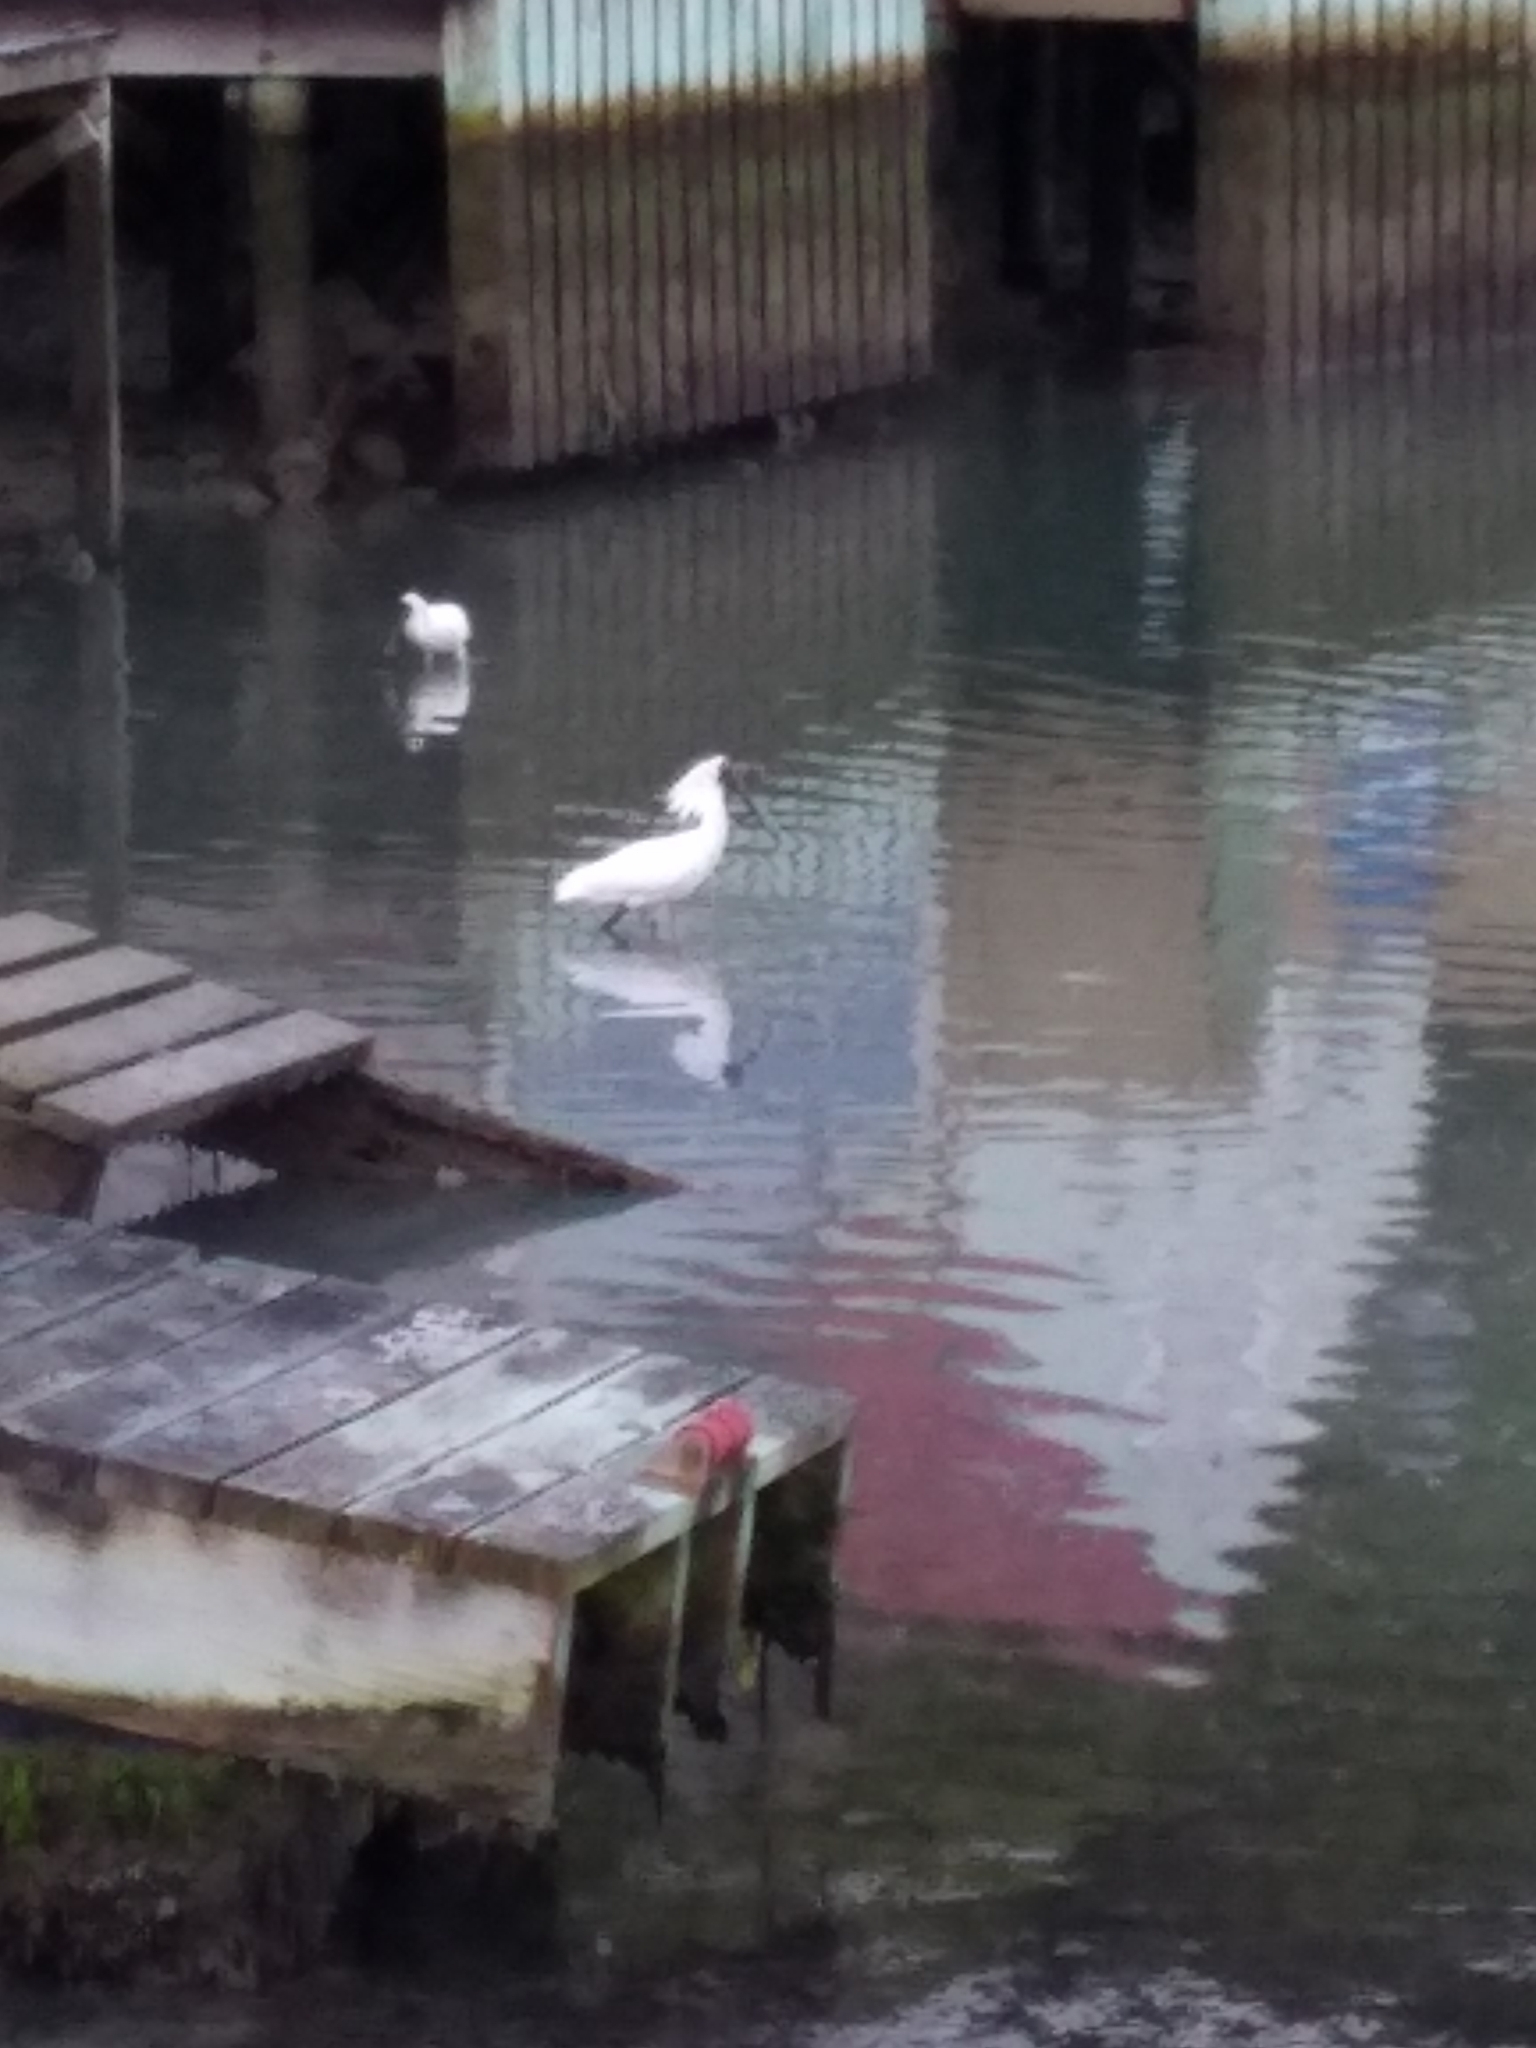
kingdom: Animalia
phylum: Chordata
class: Aves
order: Pelecaniformes
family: Threskiornithidae
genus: Platalea
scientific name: Platalea regia
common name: Royal spoonbill
